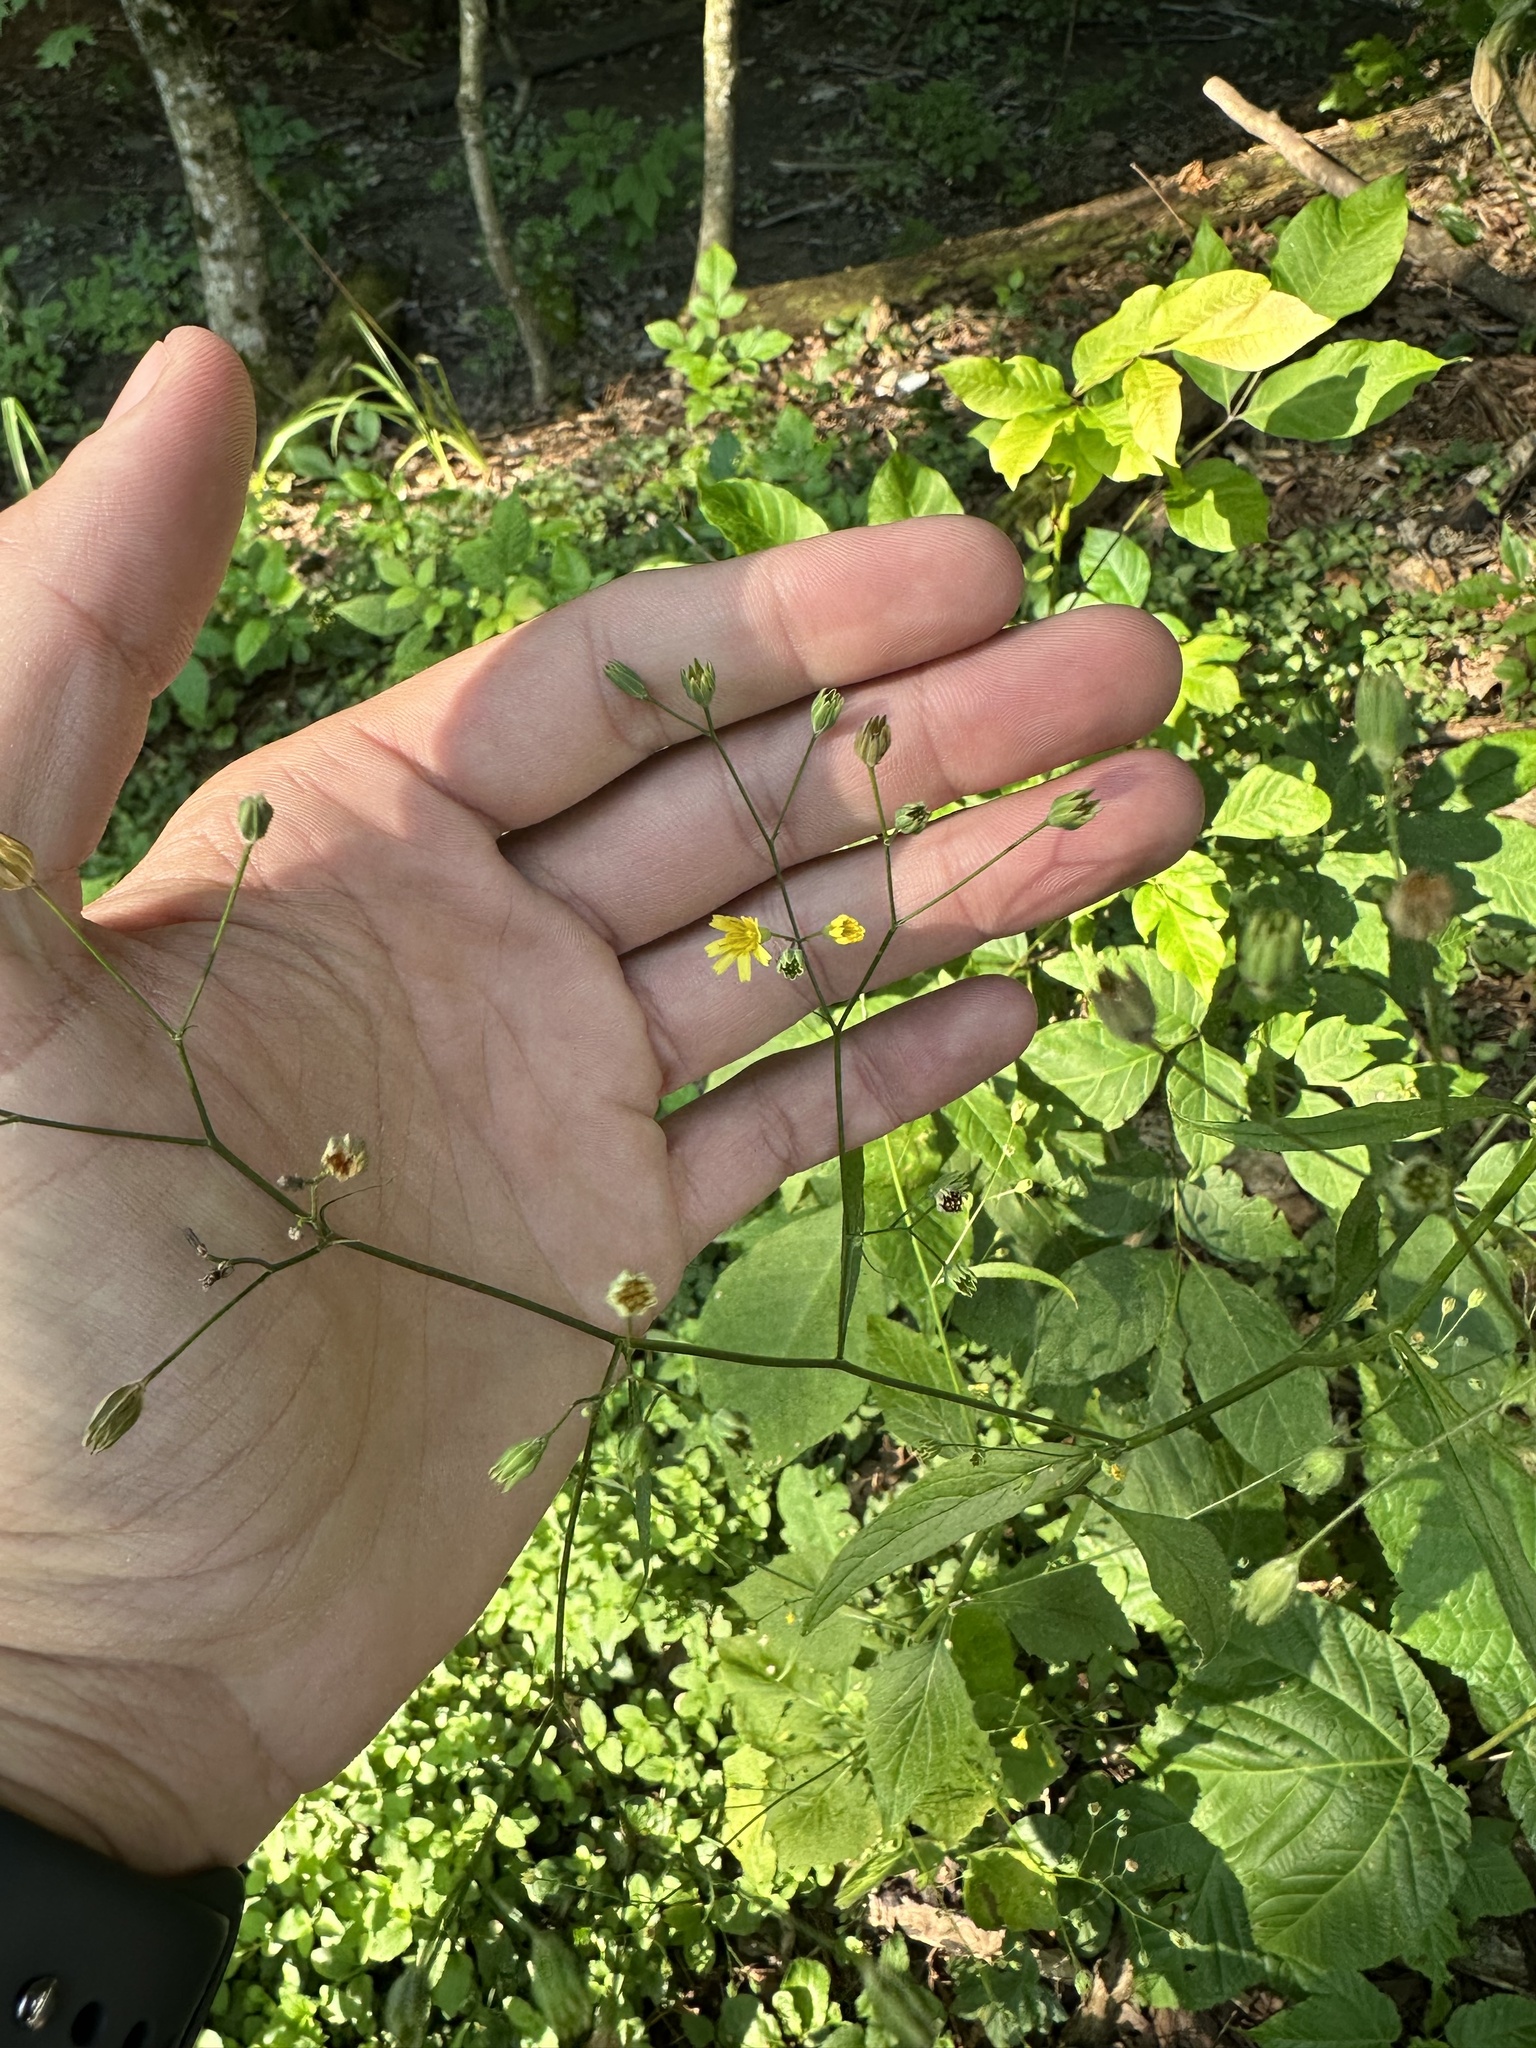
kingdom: Plantae
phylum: Tracheophyta
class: Magnoliopsida
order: Asterales
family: Asteraceae
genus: Lapsana
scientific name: Lapsana communis
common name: Nipplewort
